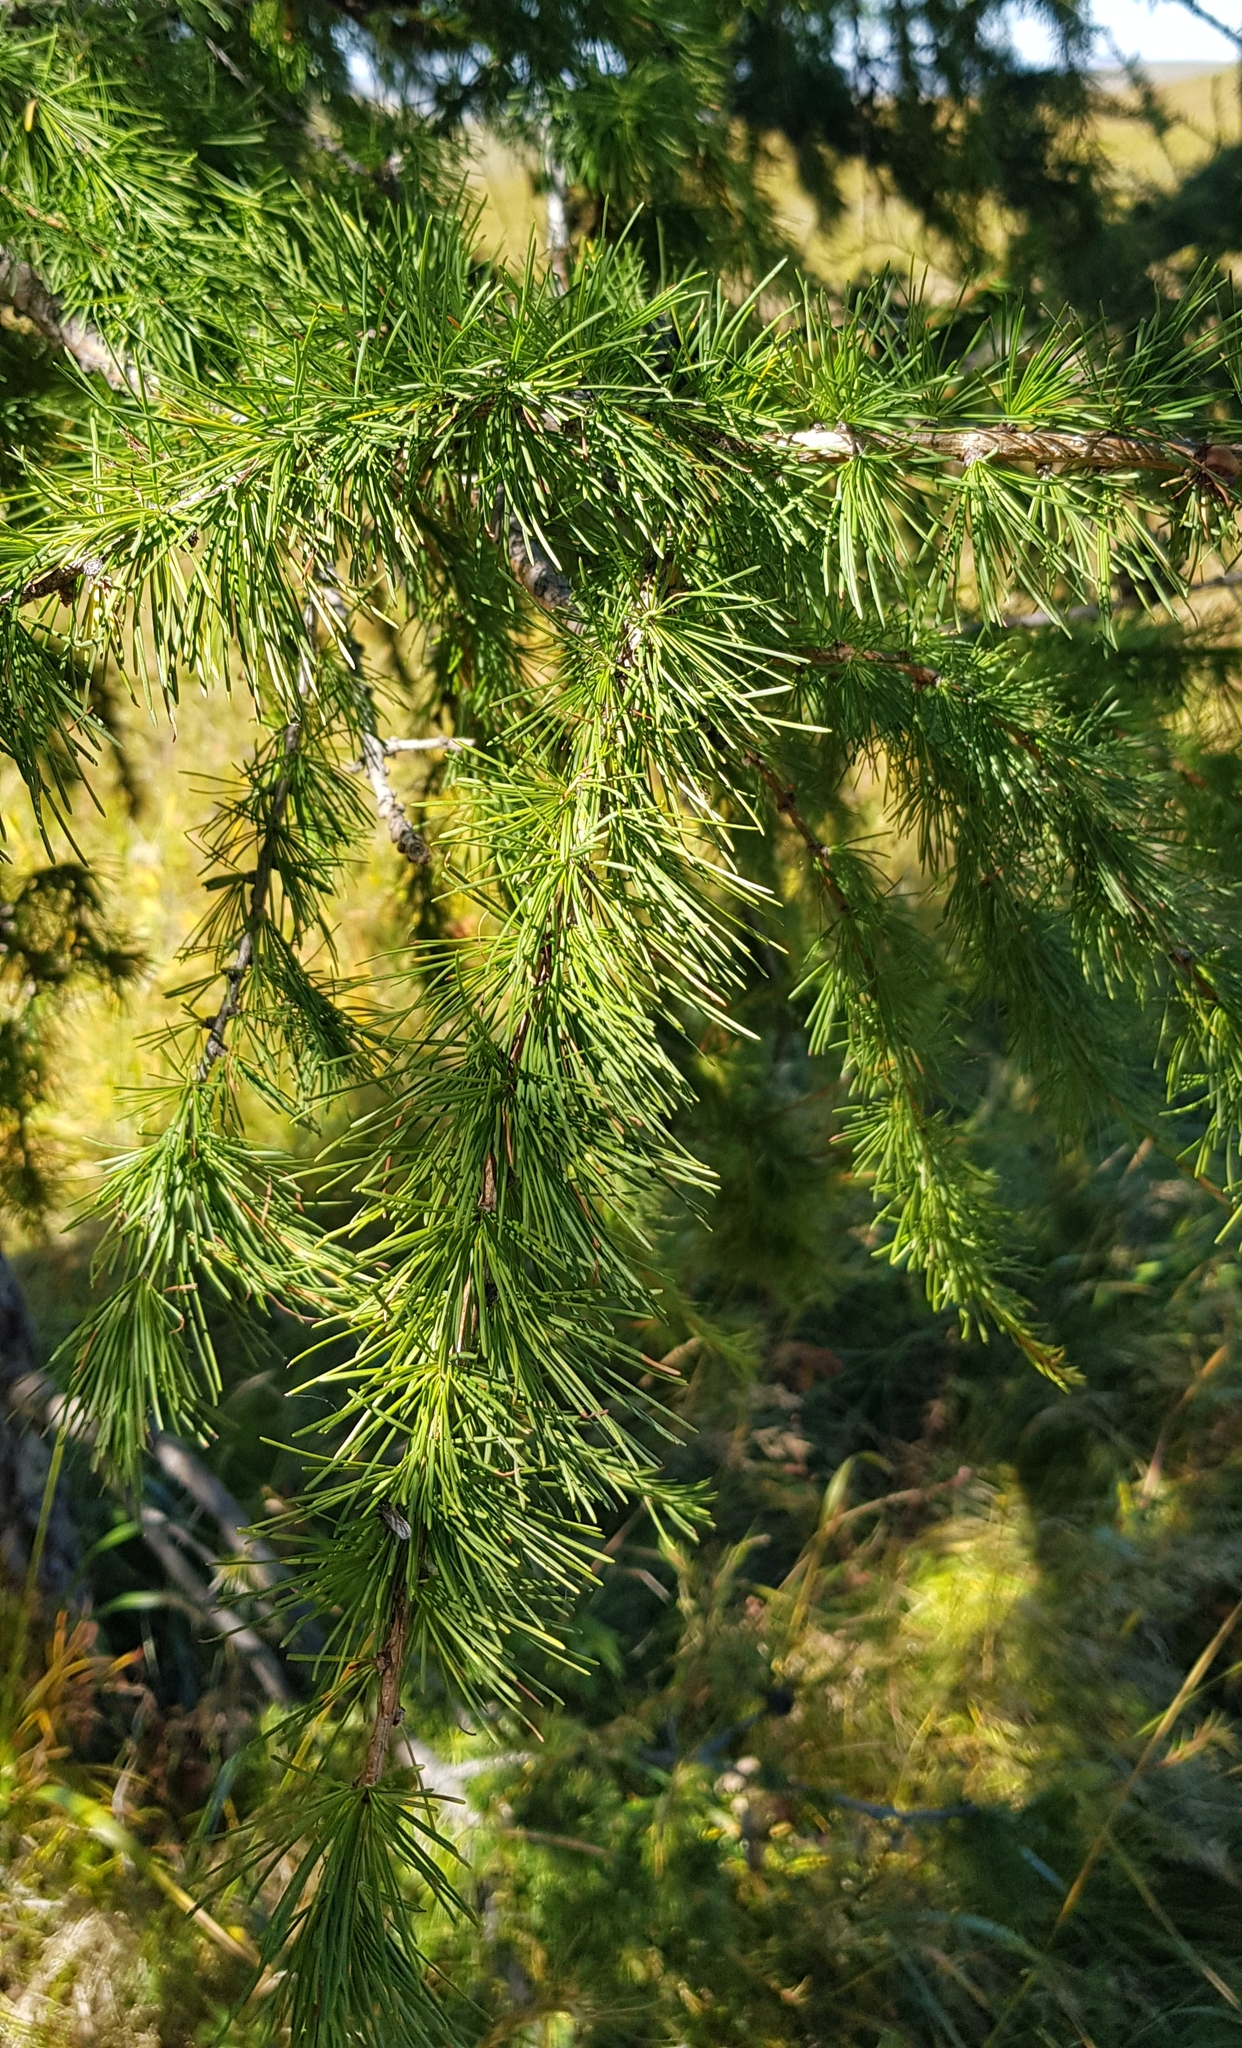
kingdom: Plantae
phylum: Tracheophyta
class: Pinopsida
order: Pinales
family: Pinaceae
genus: Larix
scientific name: Larix sibirica
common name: Siberian larch
